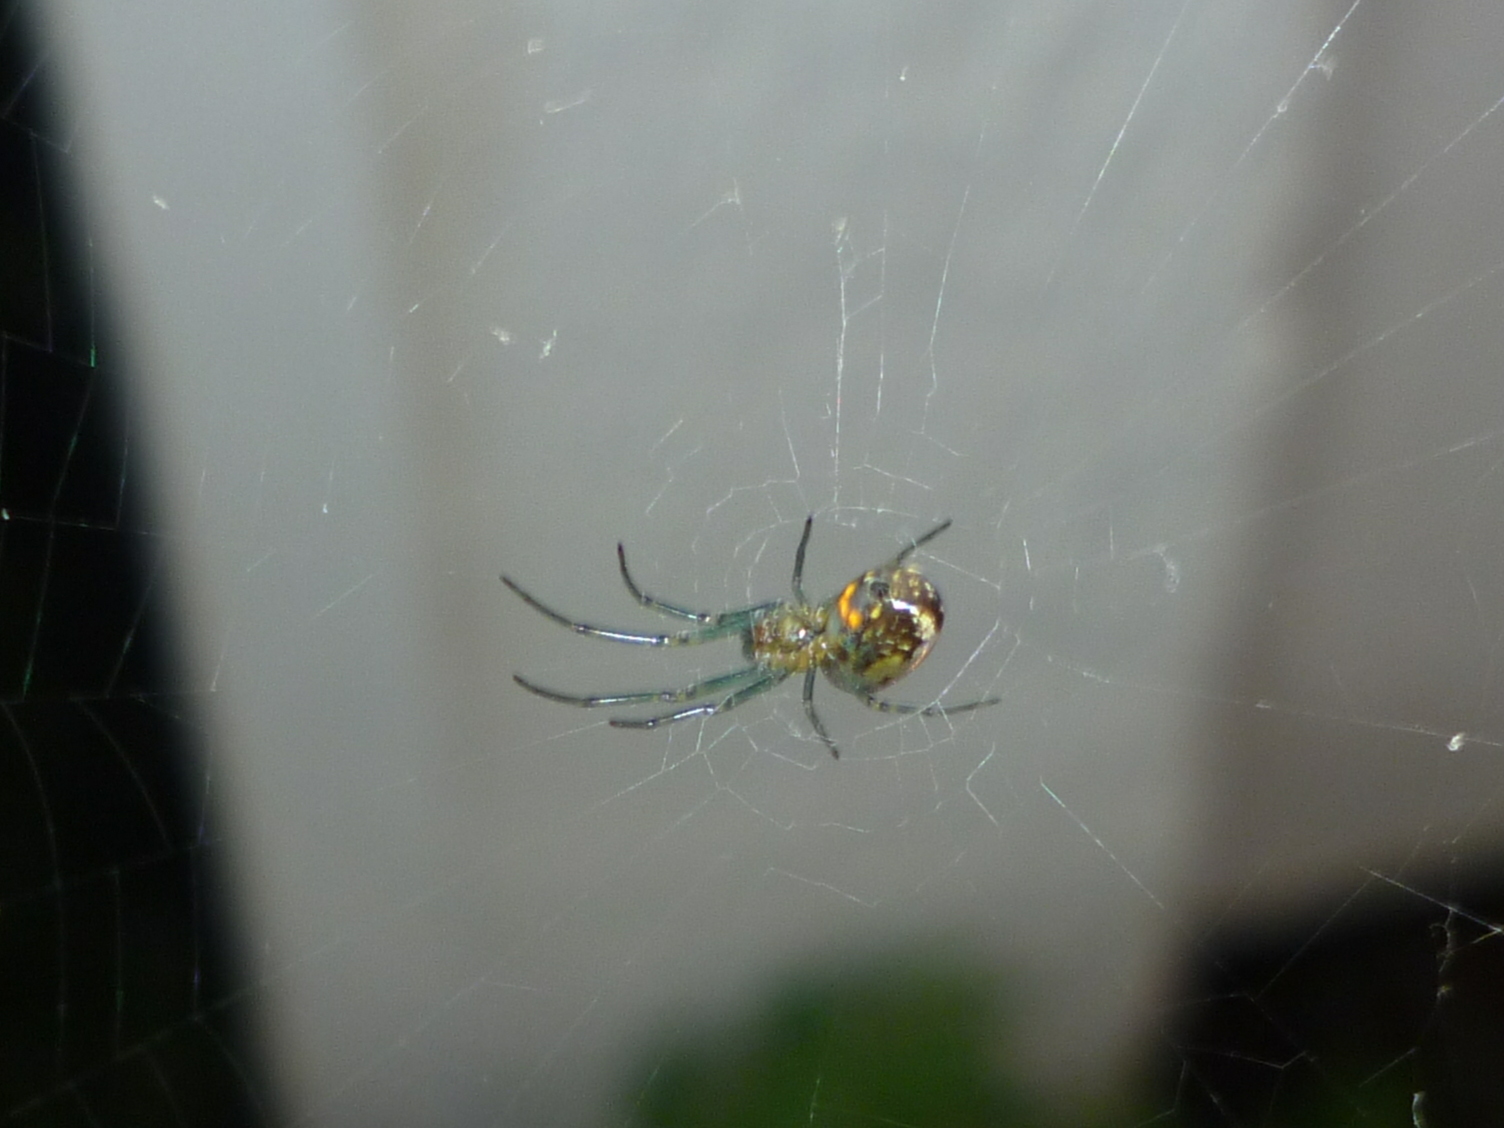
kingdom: Animalia
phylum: Arthropoda
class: Arachnida
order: Araneae
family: Tetragnathidae
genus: Leucauge
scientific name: Leucauge venusta
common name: Longjawed orb weavers
